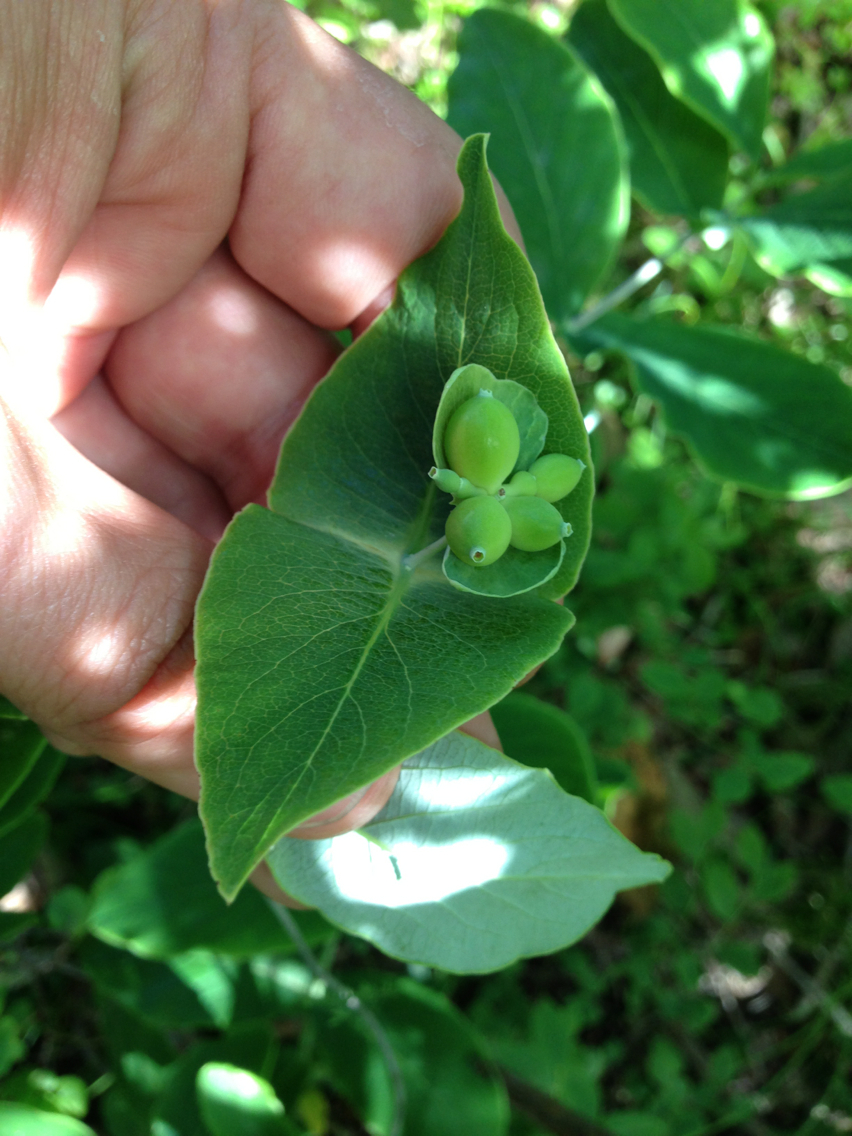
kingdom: Plantae
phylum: Tracheophyta
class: Magnoliopsida
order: Dipsacales
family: Caprifoliaceae
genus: Lonicera
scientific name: Lonicera dioica
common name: Limber honeysuckle
